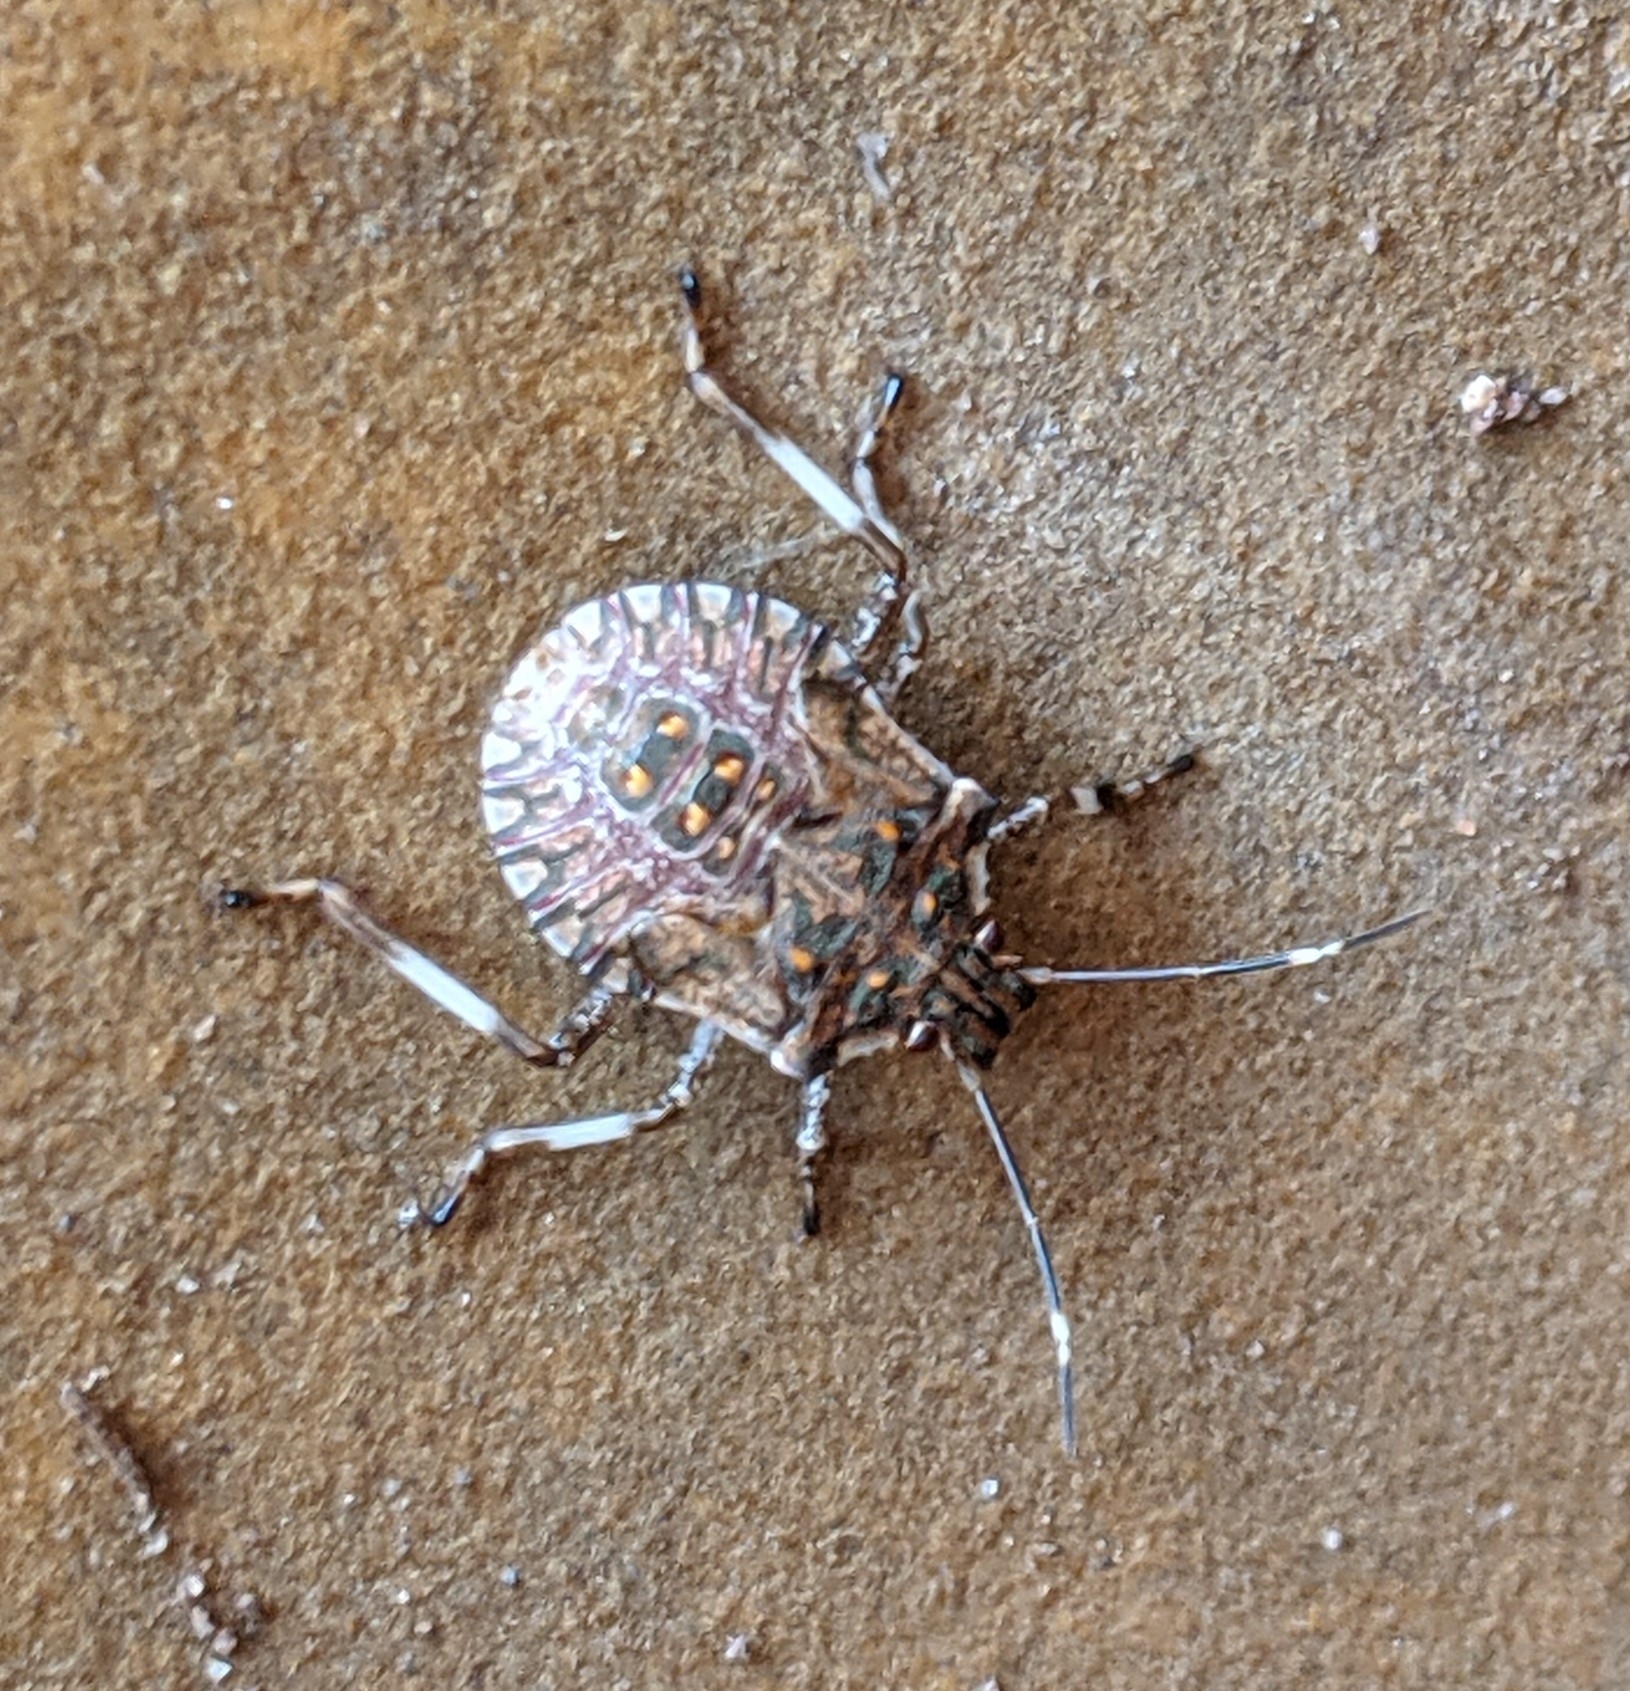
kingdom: Animalia
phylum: Arthropoda
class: Insecta
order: Hemiptera
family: Pentatomidae
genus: Halyomorpha
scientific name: Halyomorpha halys
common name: Brown marmorated stink bug
